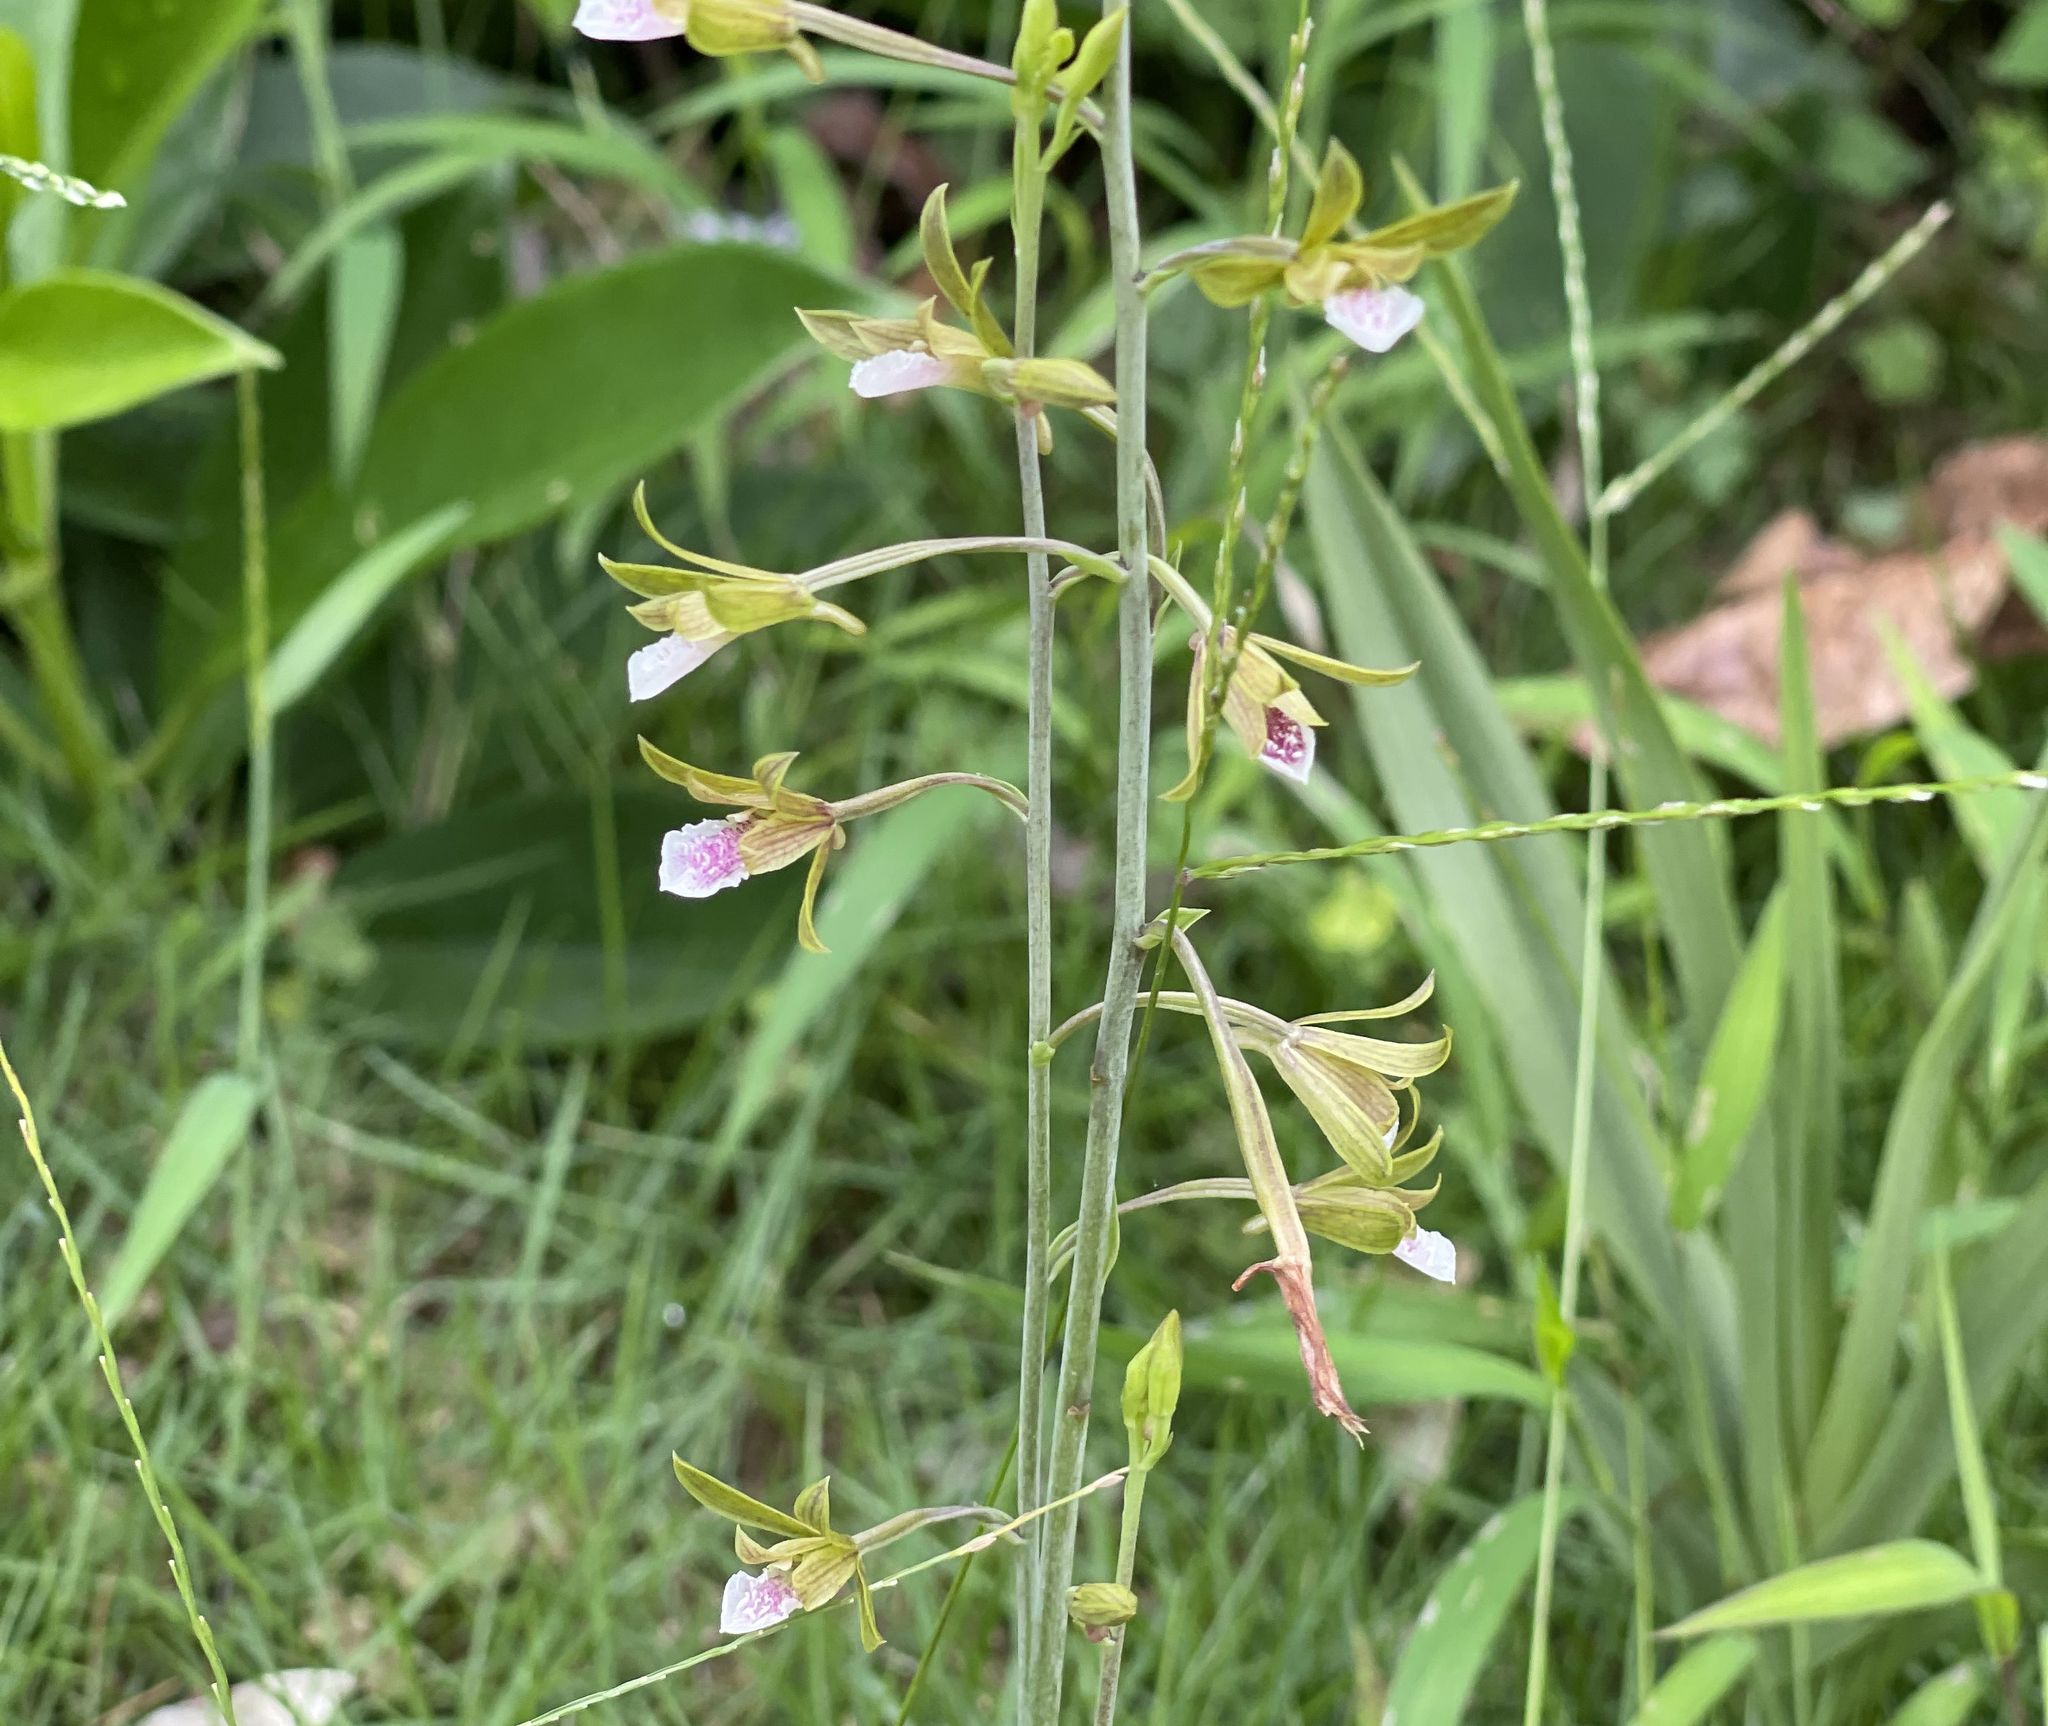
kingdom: Plantae
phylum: Tracheophyta
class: Liliopsida
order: Asparagales
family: Orchidaceae
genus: Eulophia
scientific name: Eulophia graminea
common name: Orchid
